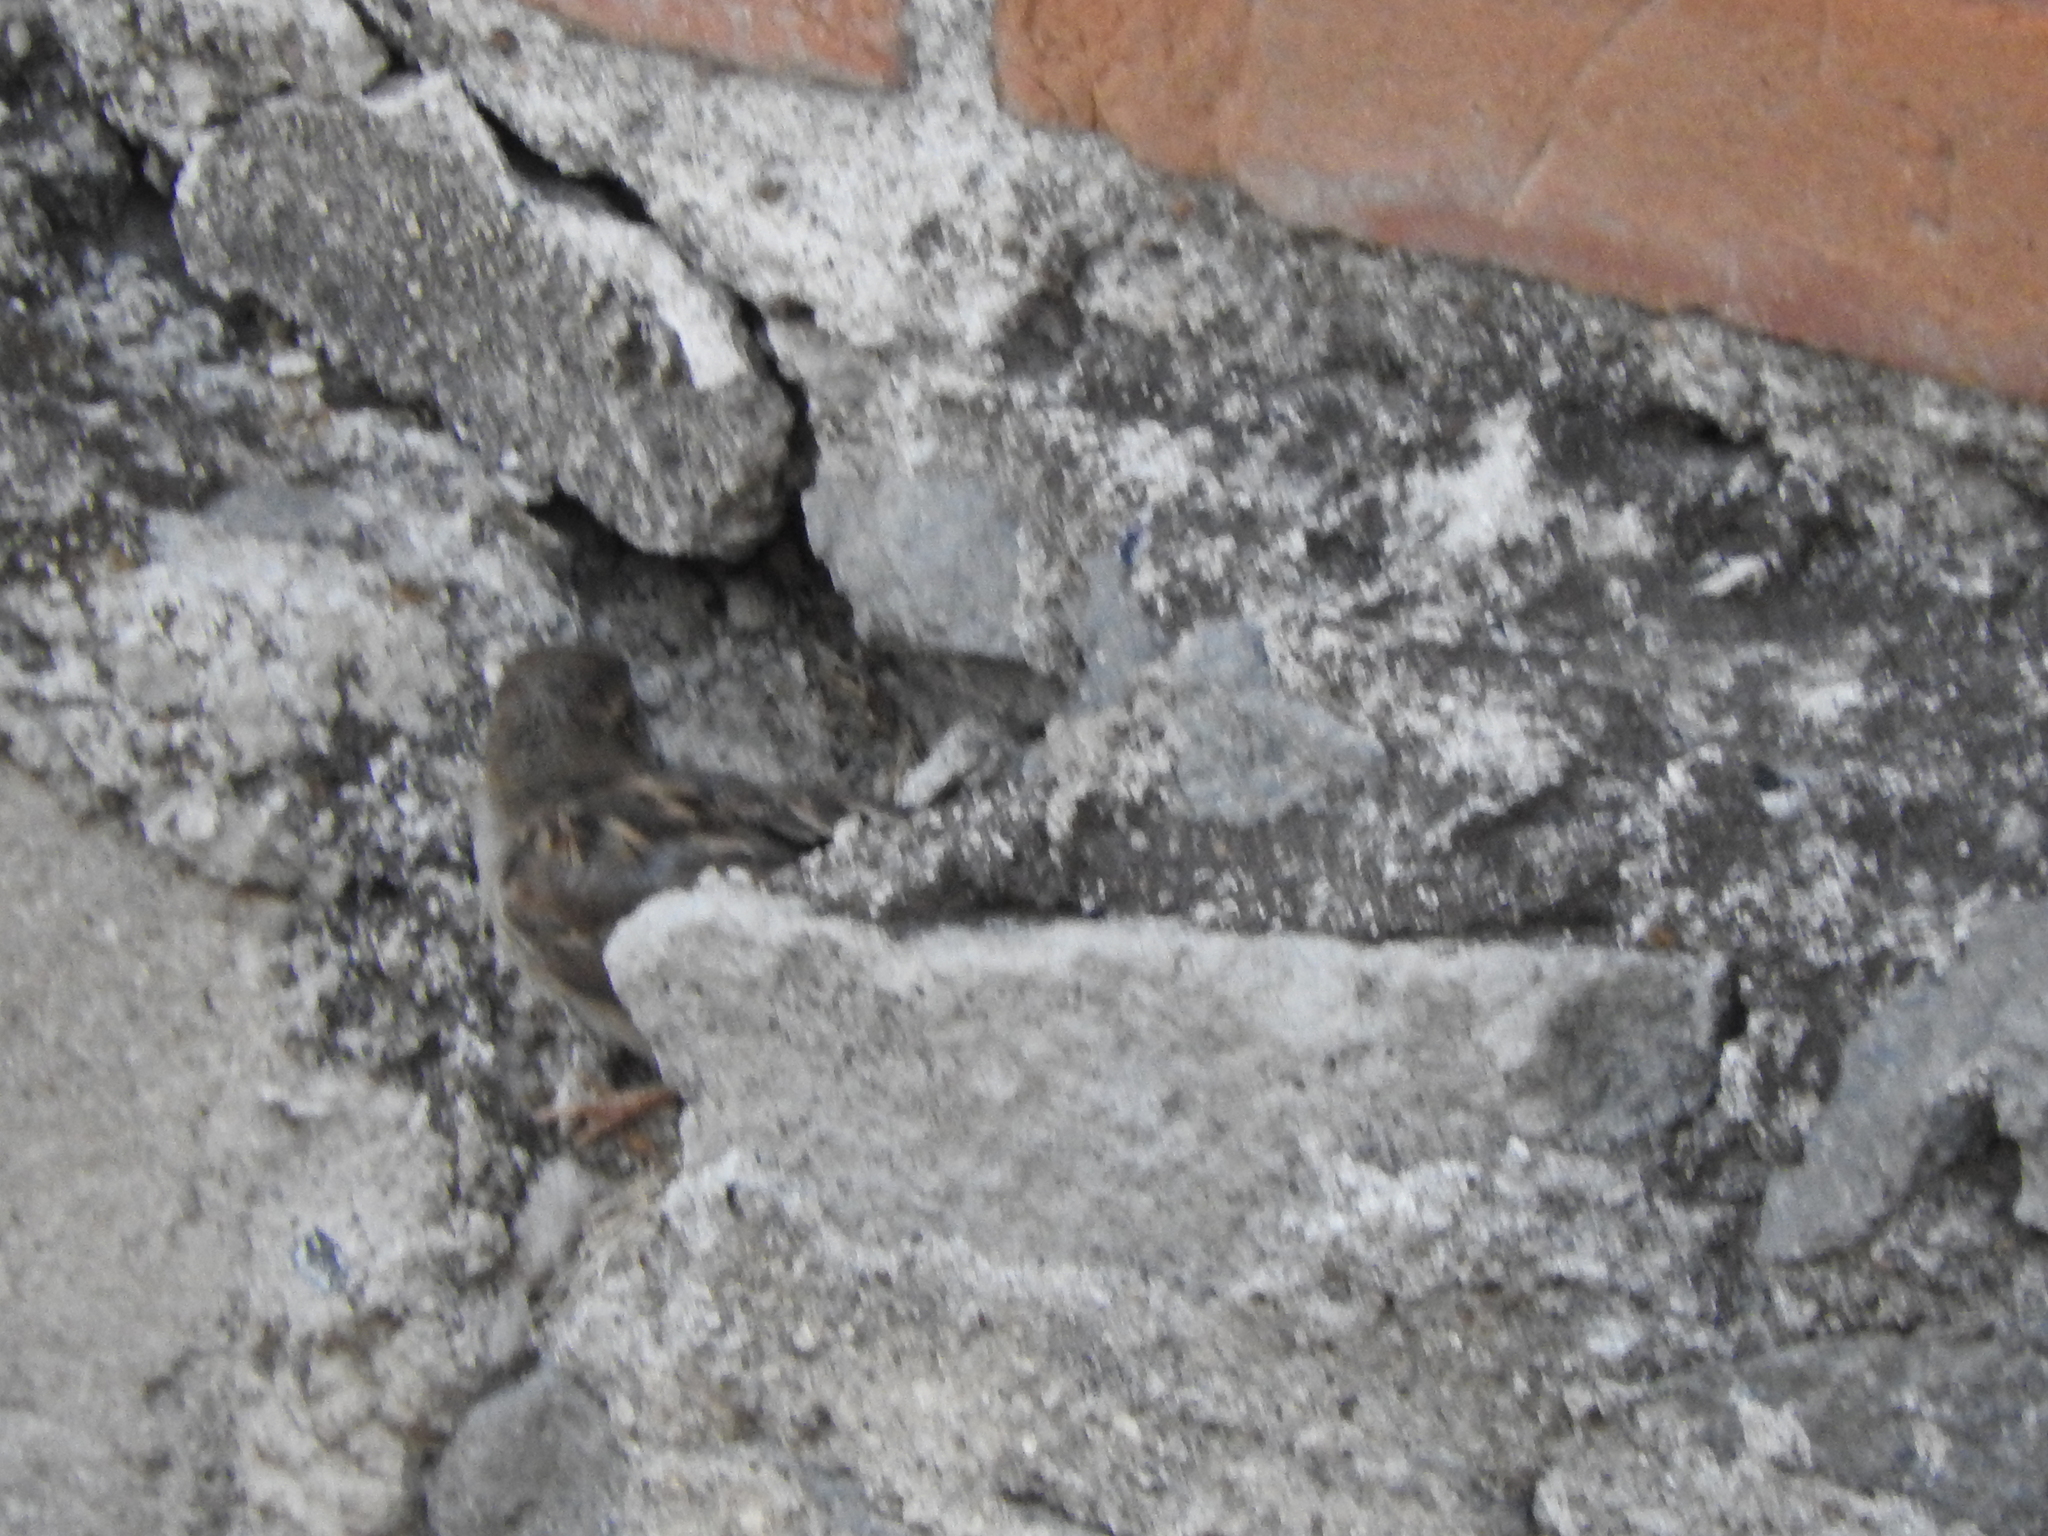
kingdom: Animalia
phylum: Chordata
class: Aves
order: Passeriformes
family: Passeridae
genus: Passer
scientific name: Passer domesticus
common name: House sparrow
